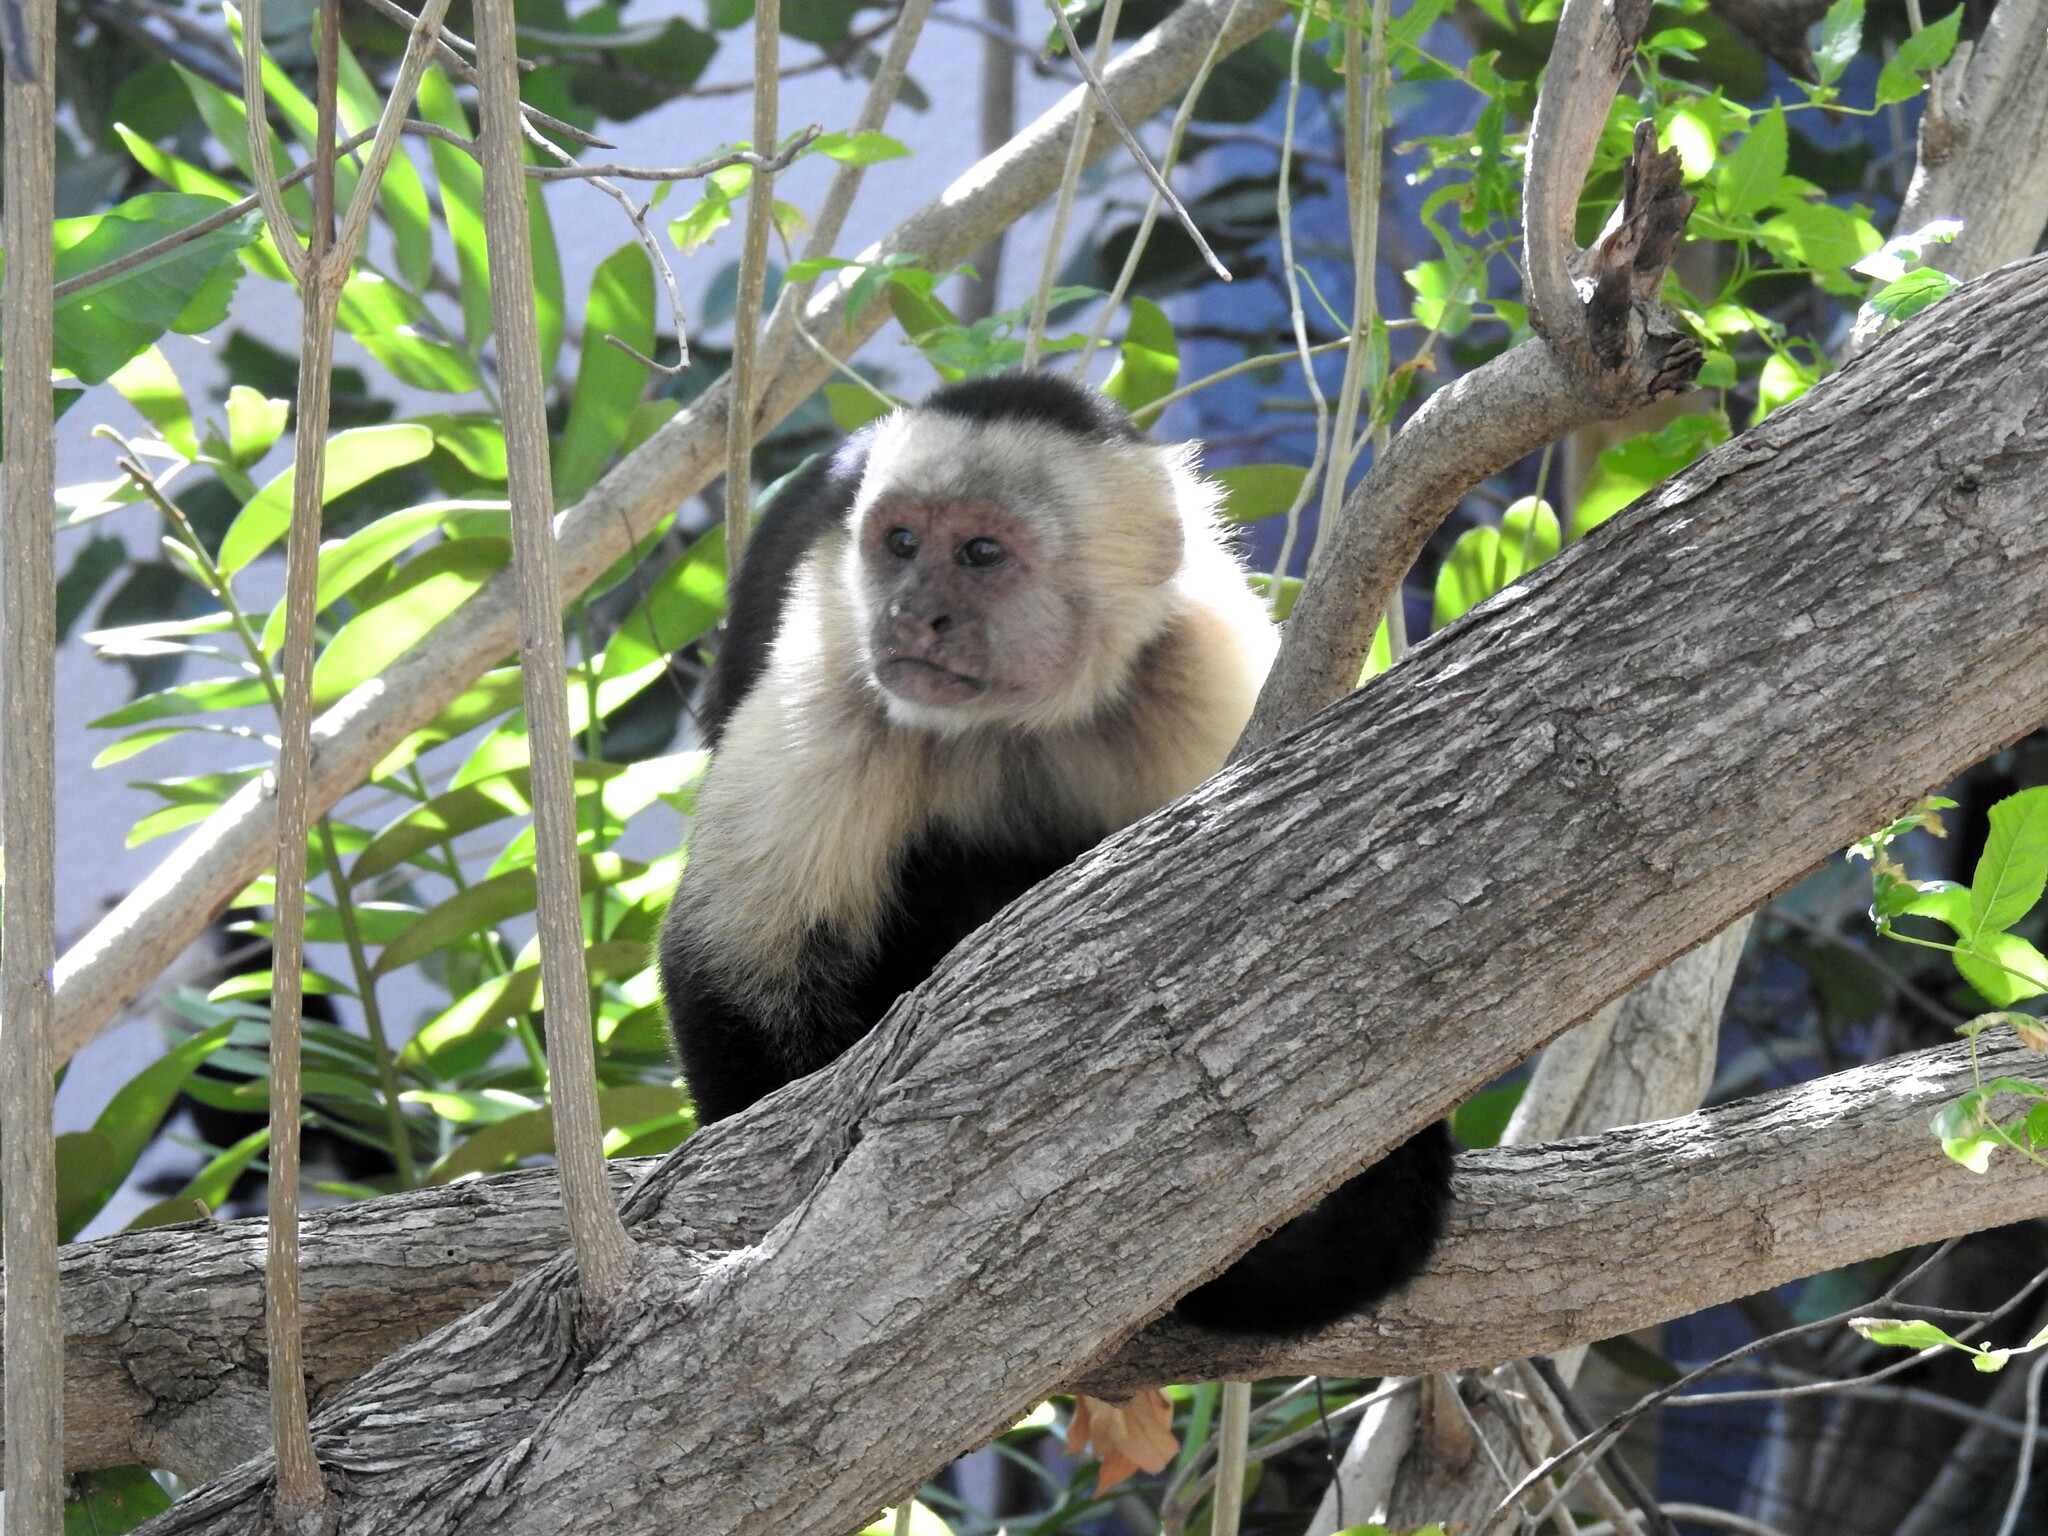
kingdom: Animalia
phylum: Chordata
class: Mammalia
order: Primates
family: Cebidae
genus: Cebus
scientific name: Cebus imitator
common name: Panamanian white-faced capuchin
